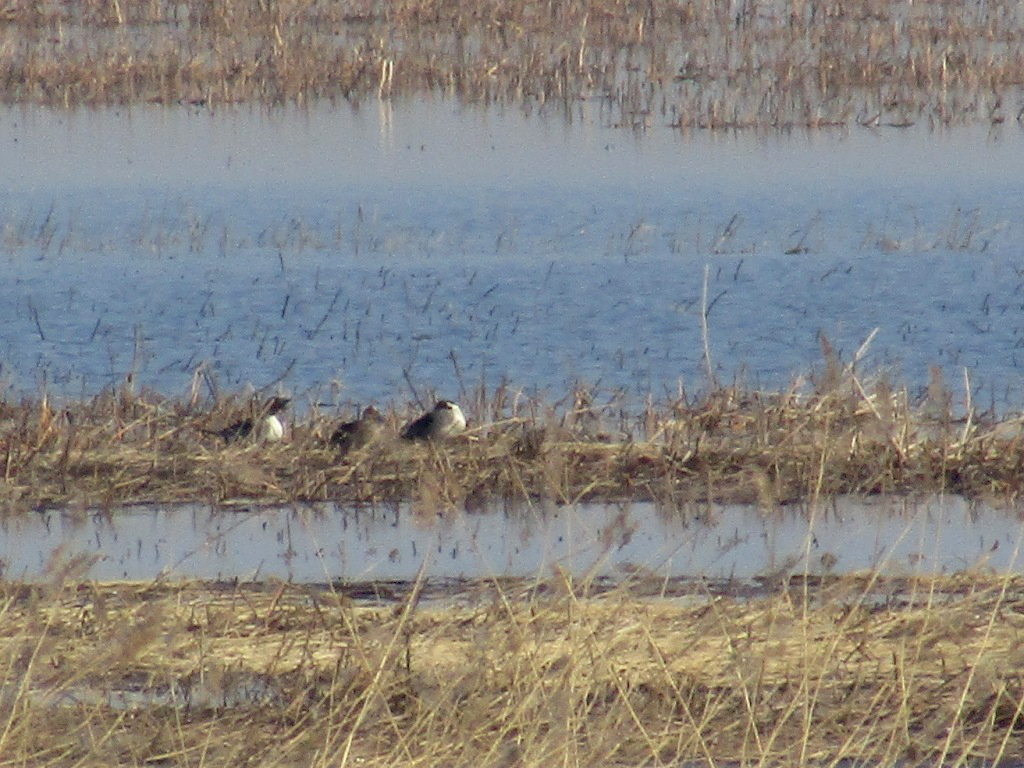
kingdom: Animalia
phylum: Chordata
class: Aves
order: Anseriformes
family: Anatidae
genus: Anas
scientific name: Anas acuta
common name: Northern pintail
